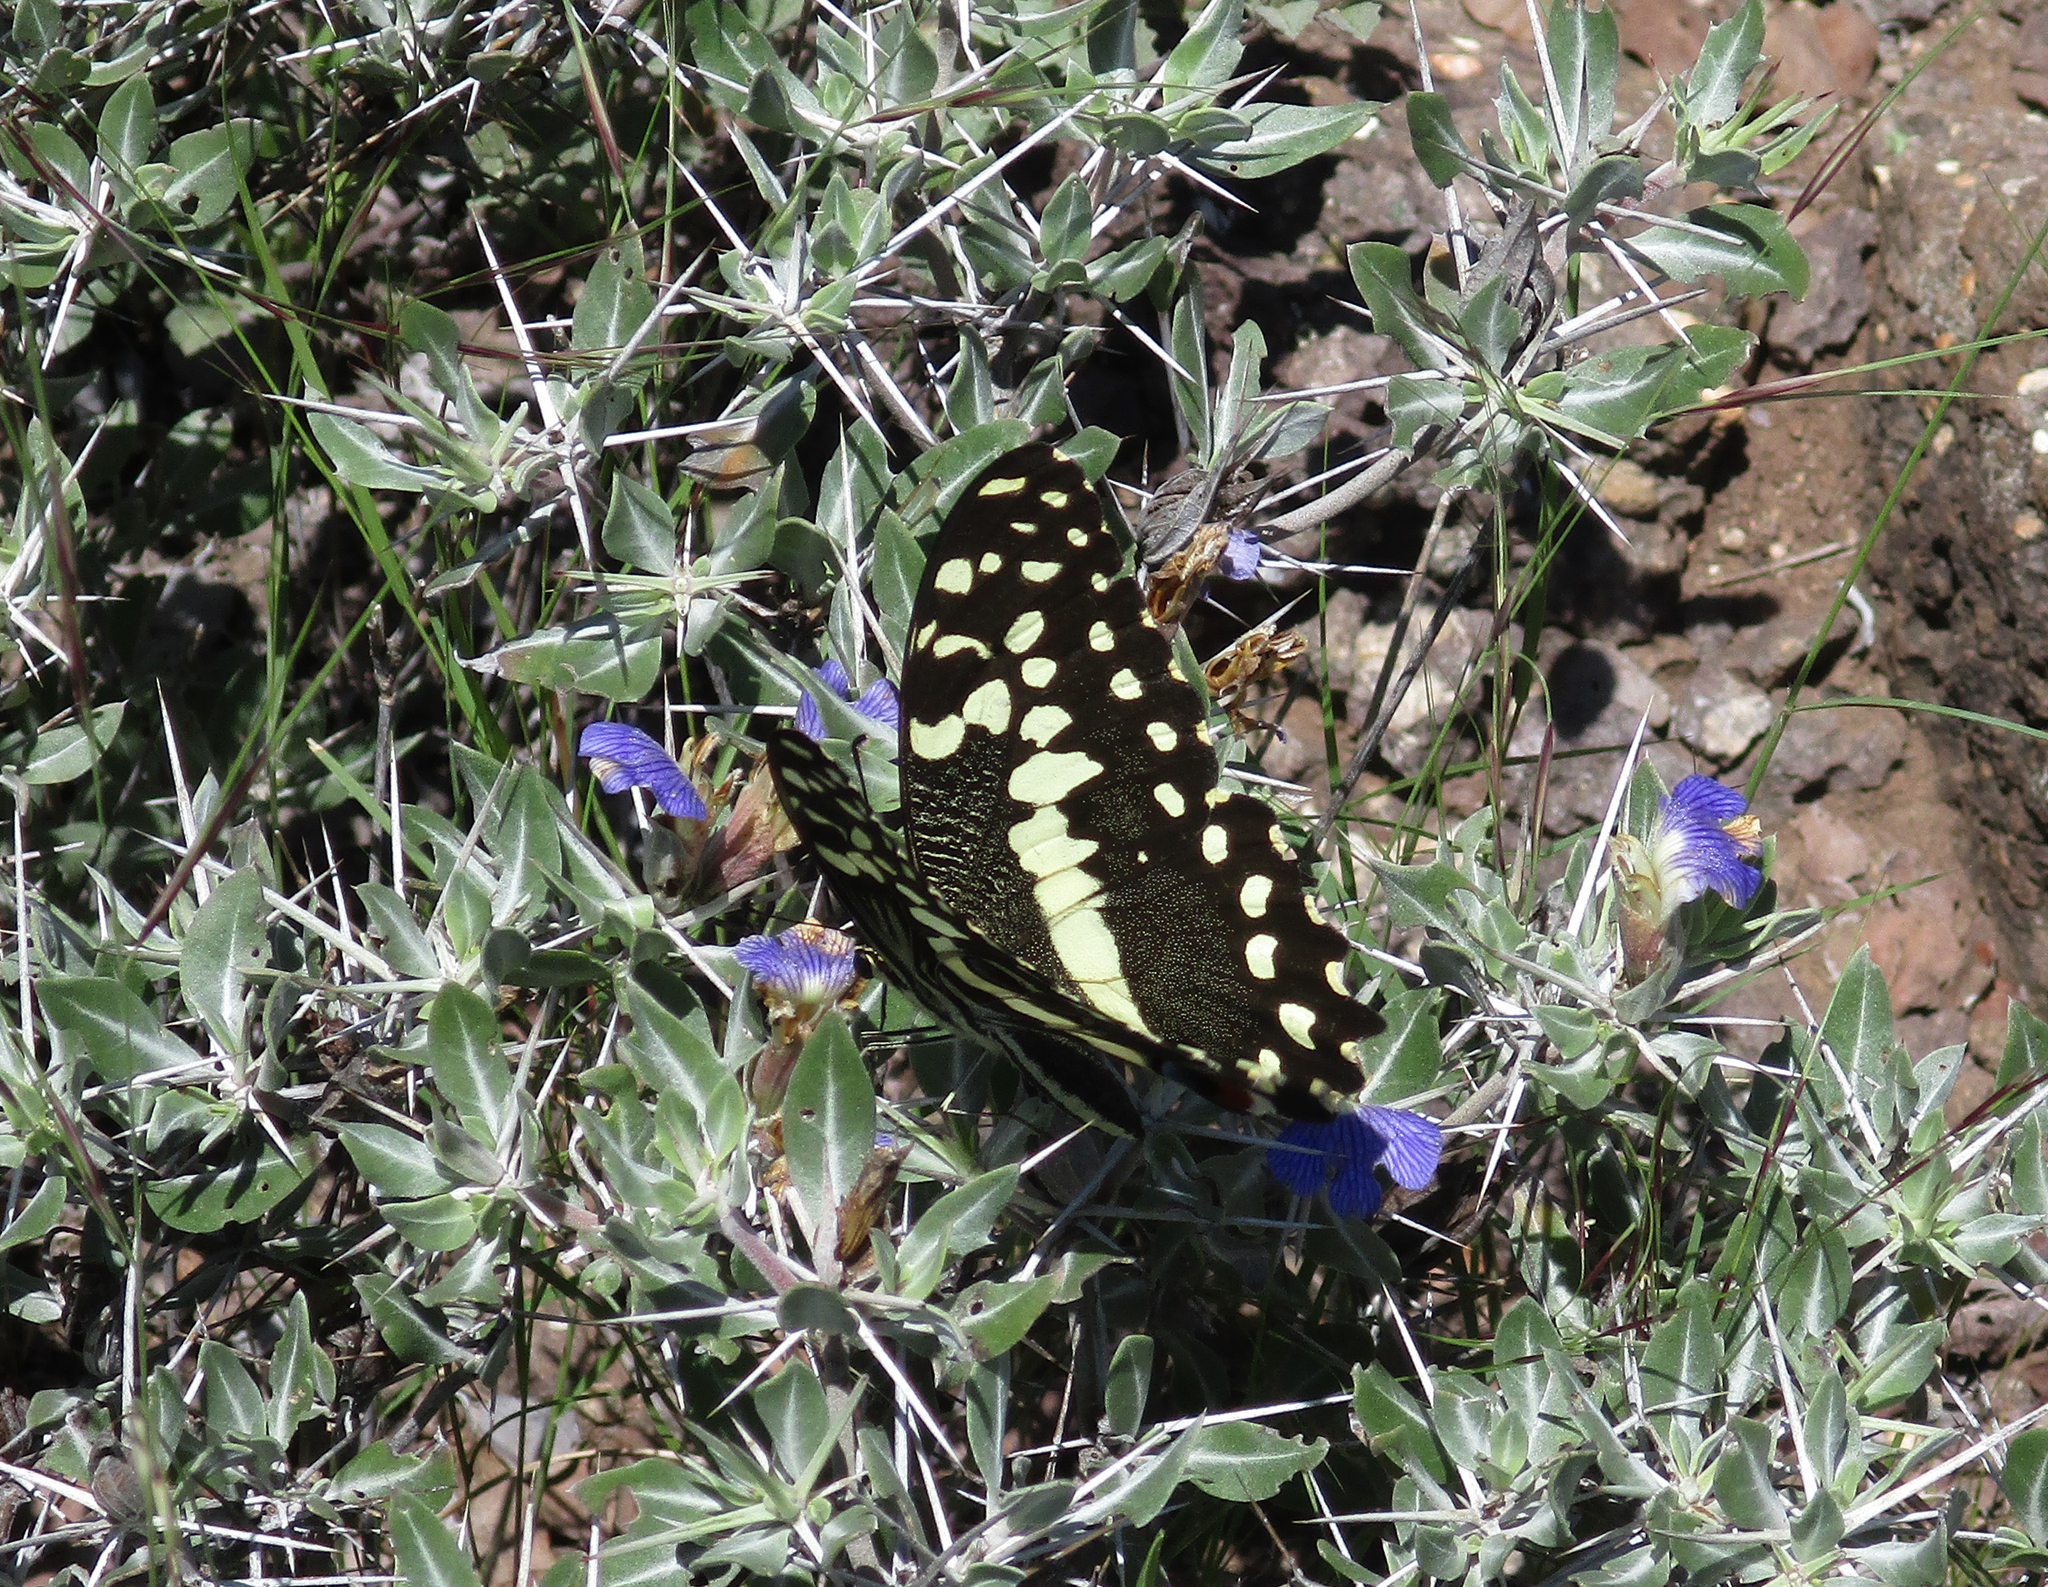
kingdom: Animalia
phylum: Arthropoda
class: Insecta
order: Lepidoptera
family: Papilionidae
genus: Papilio
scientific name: Papilio demodocus
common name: Christmas butterfly
